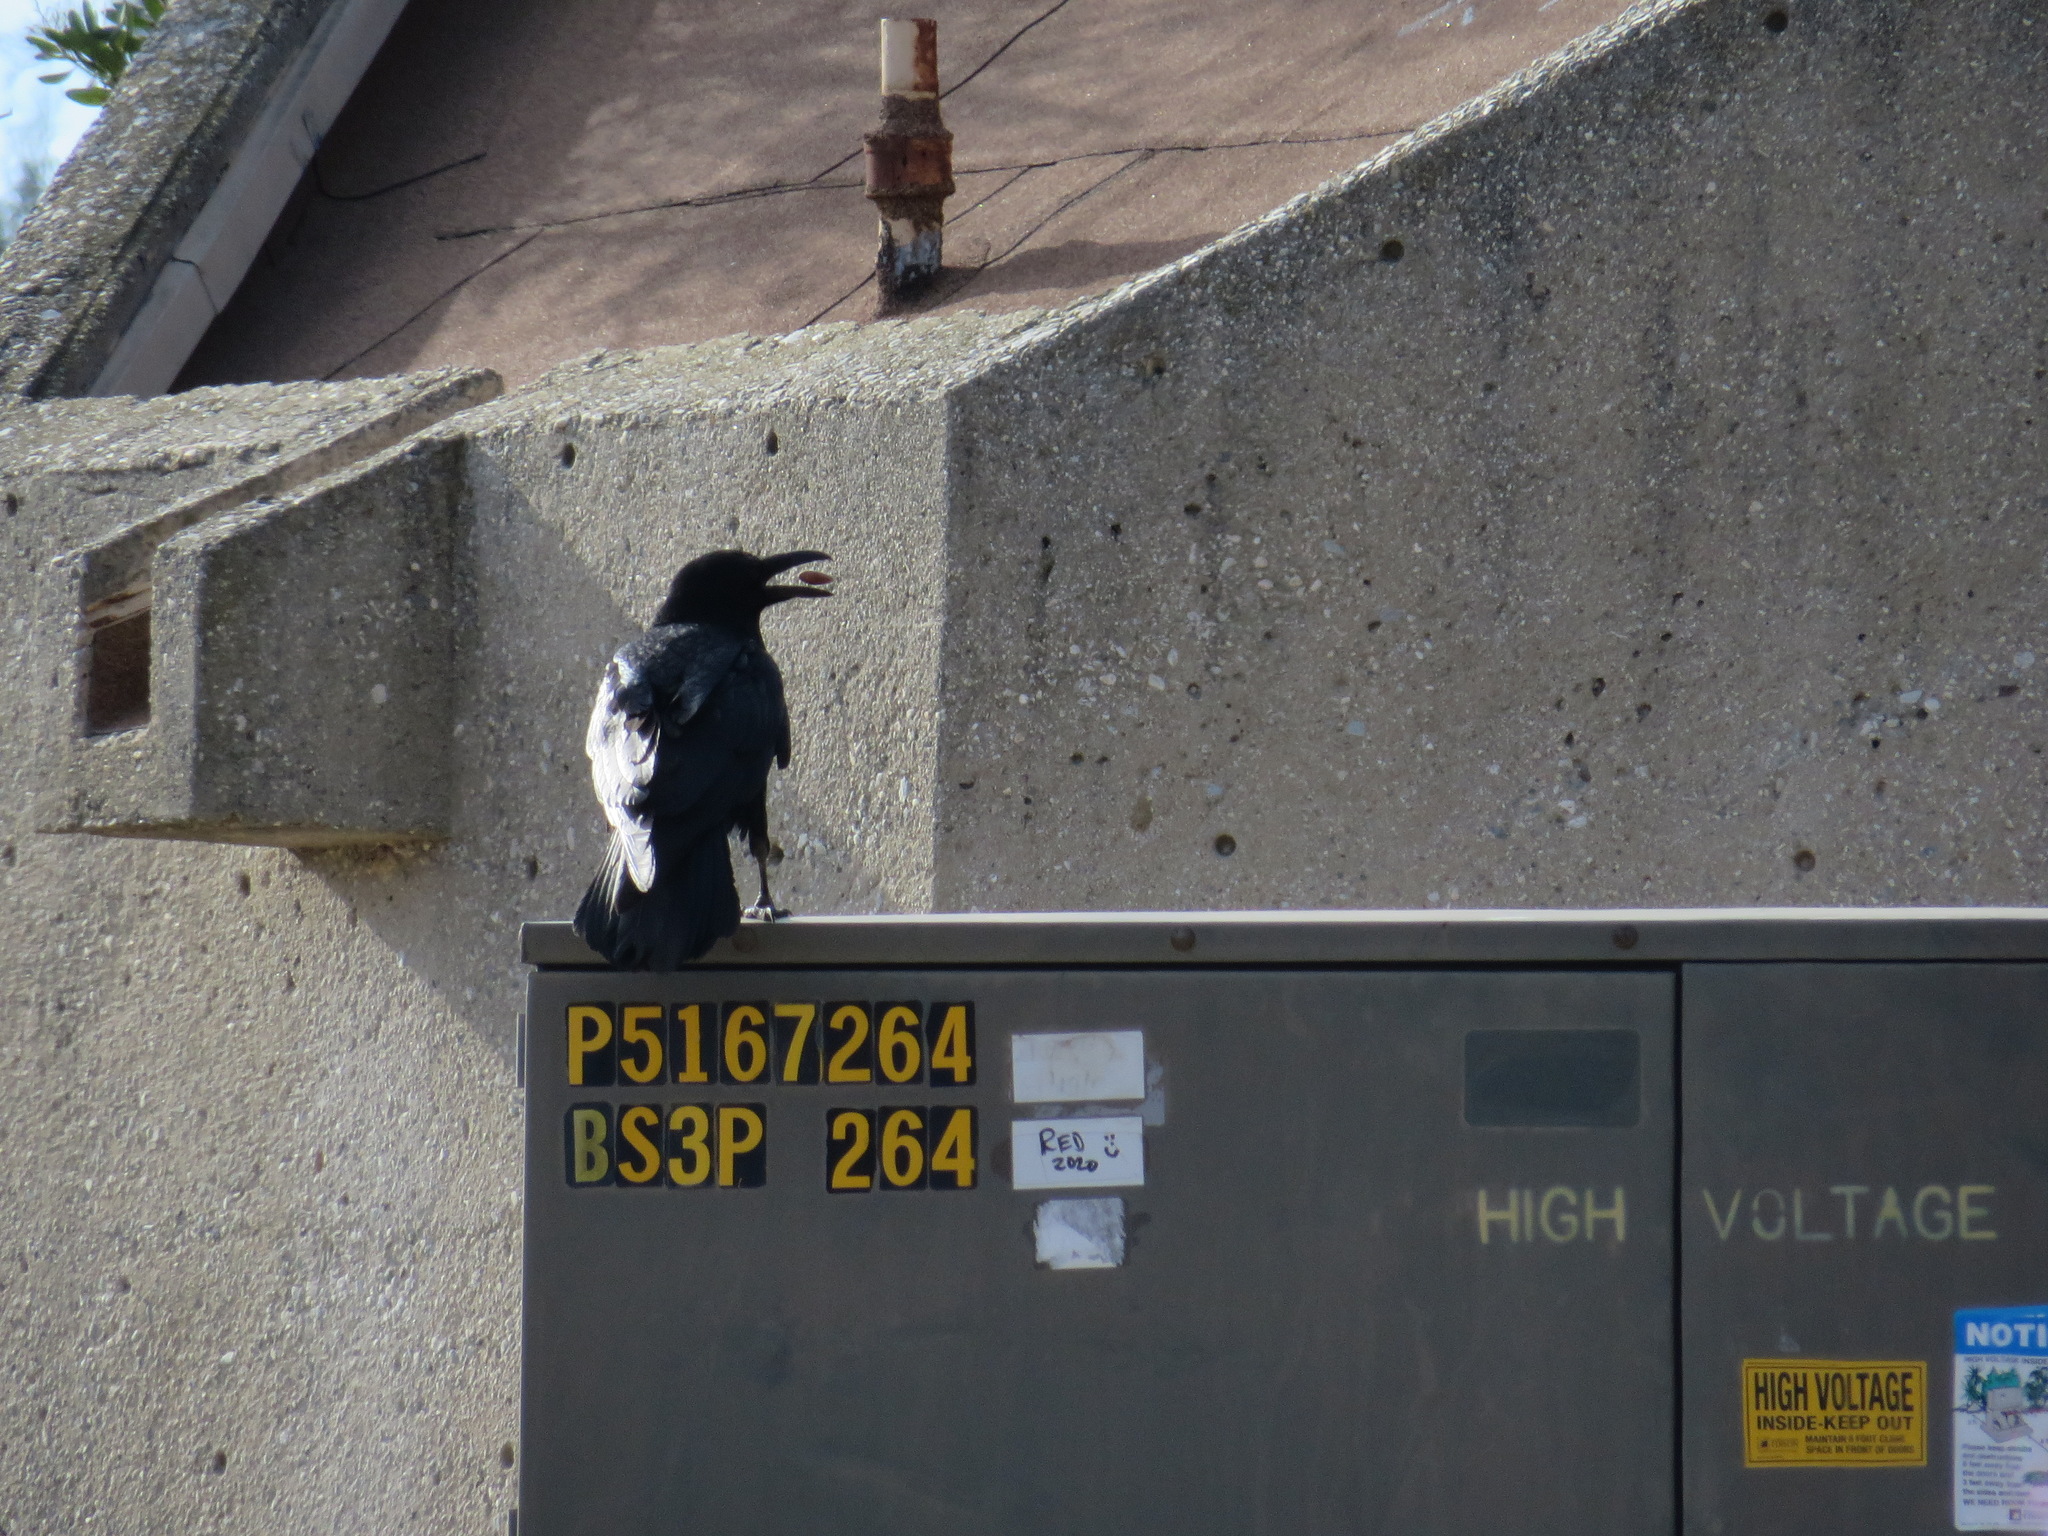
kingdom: Animalia
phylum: Chordata
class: Aves
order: Passeriformes
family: Corvidae
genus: Corvus
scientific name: Corvus corax
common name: Common raven
